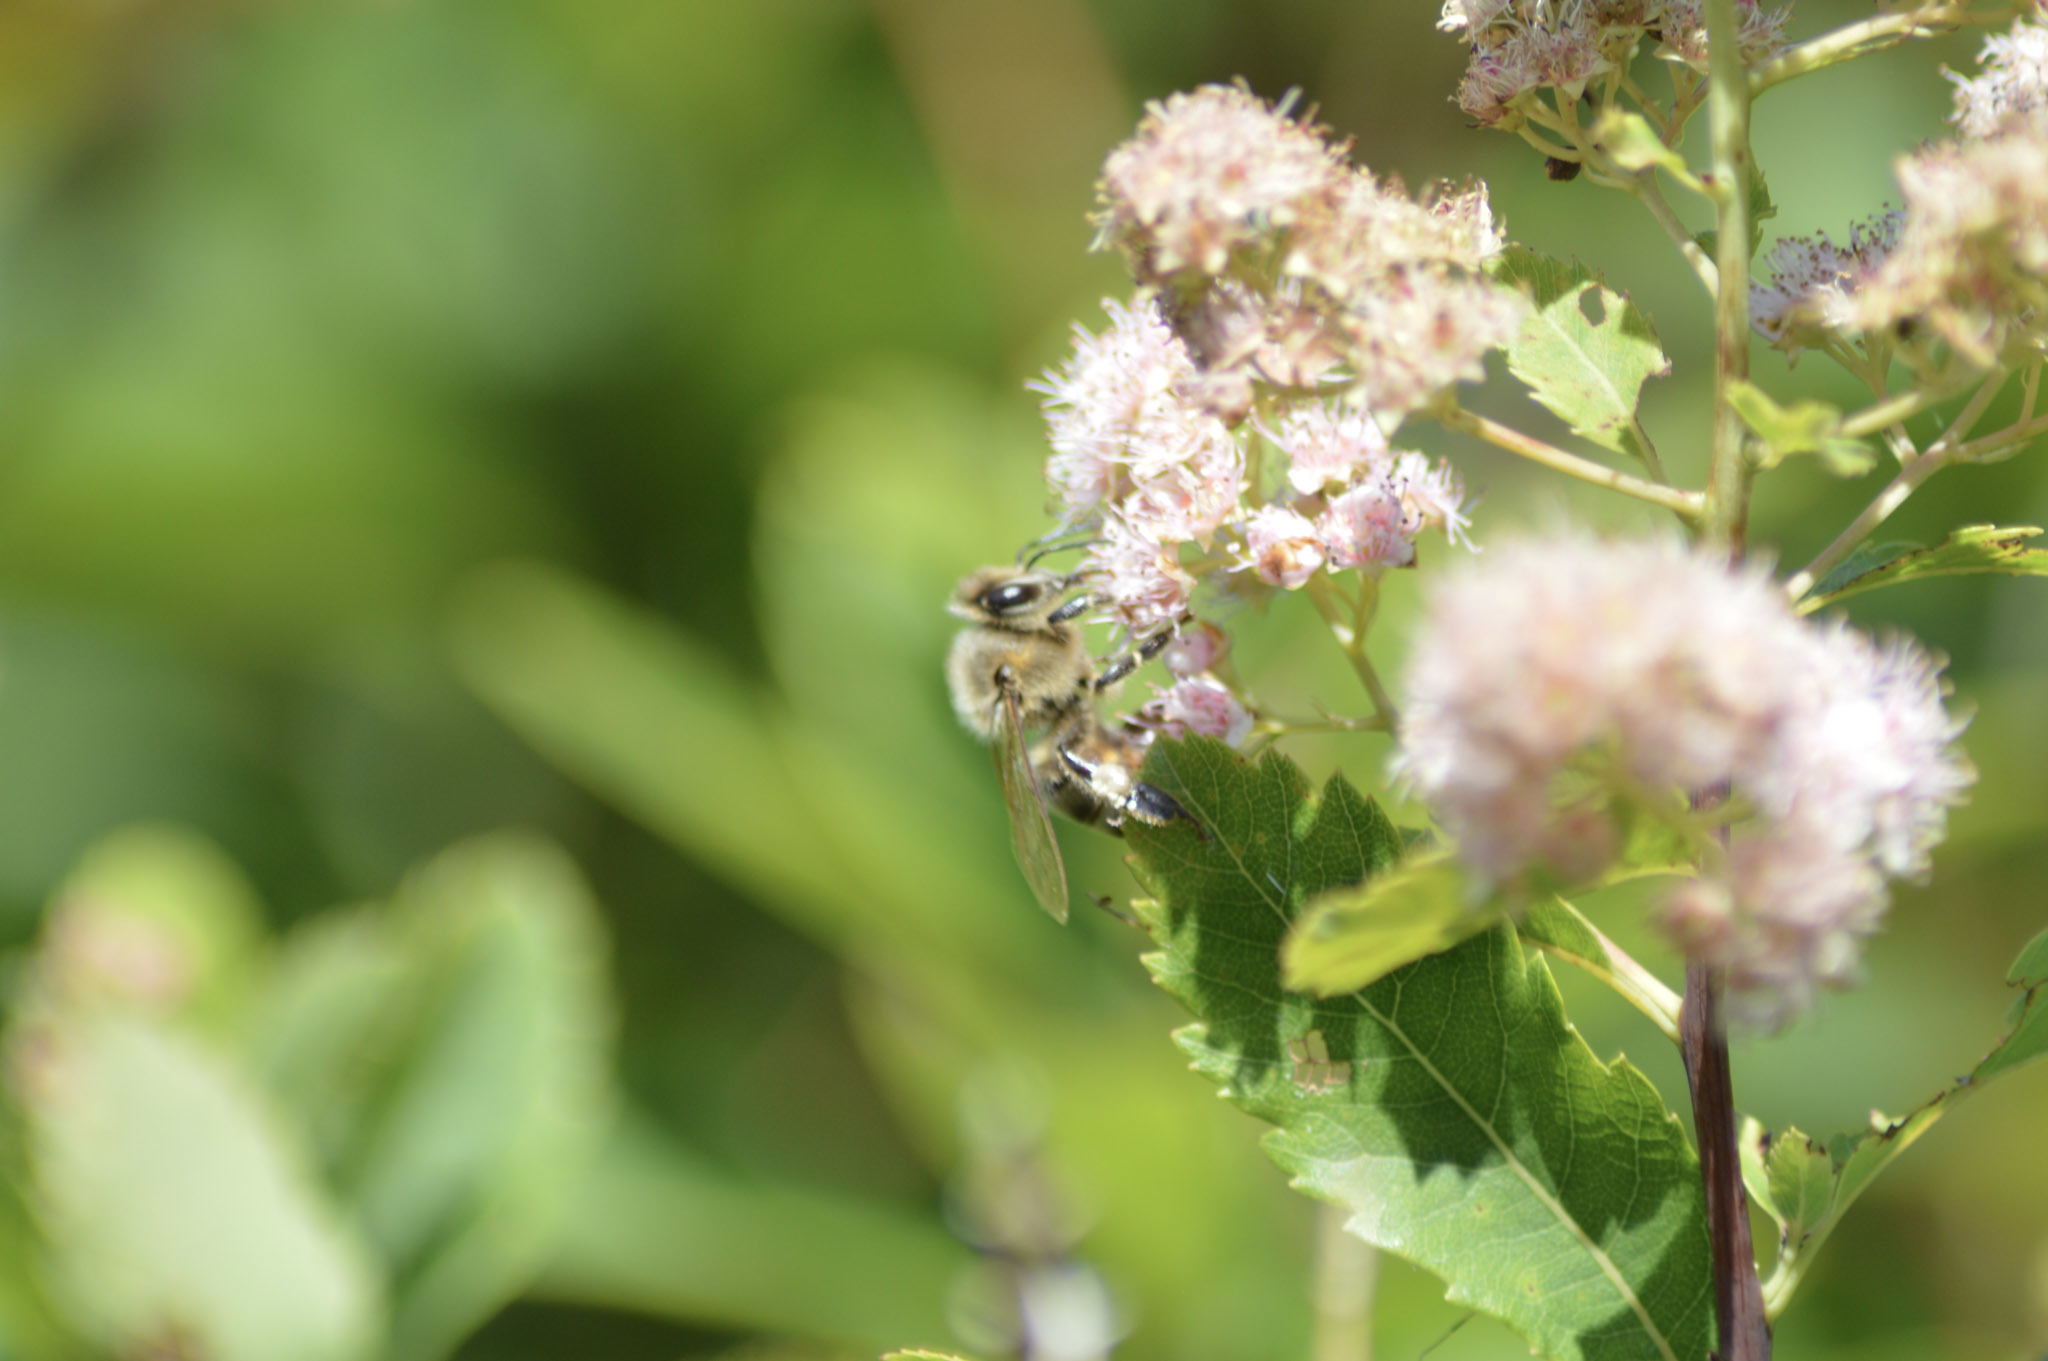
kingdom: Animalia
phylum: Arthropoda
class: Insecta
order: Hymenoptera
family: Apidae
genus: Apis
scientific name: Apis mellifera
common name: Honey bee
